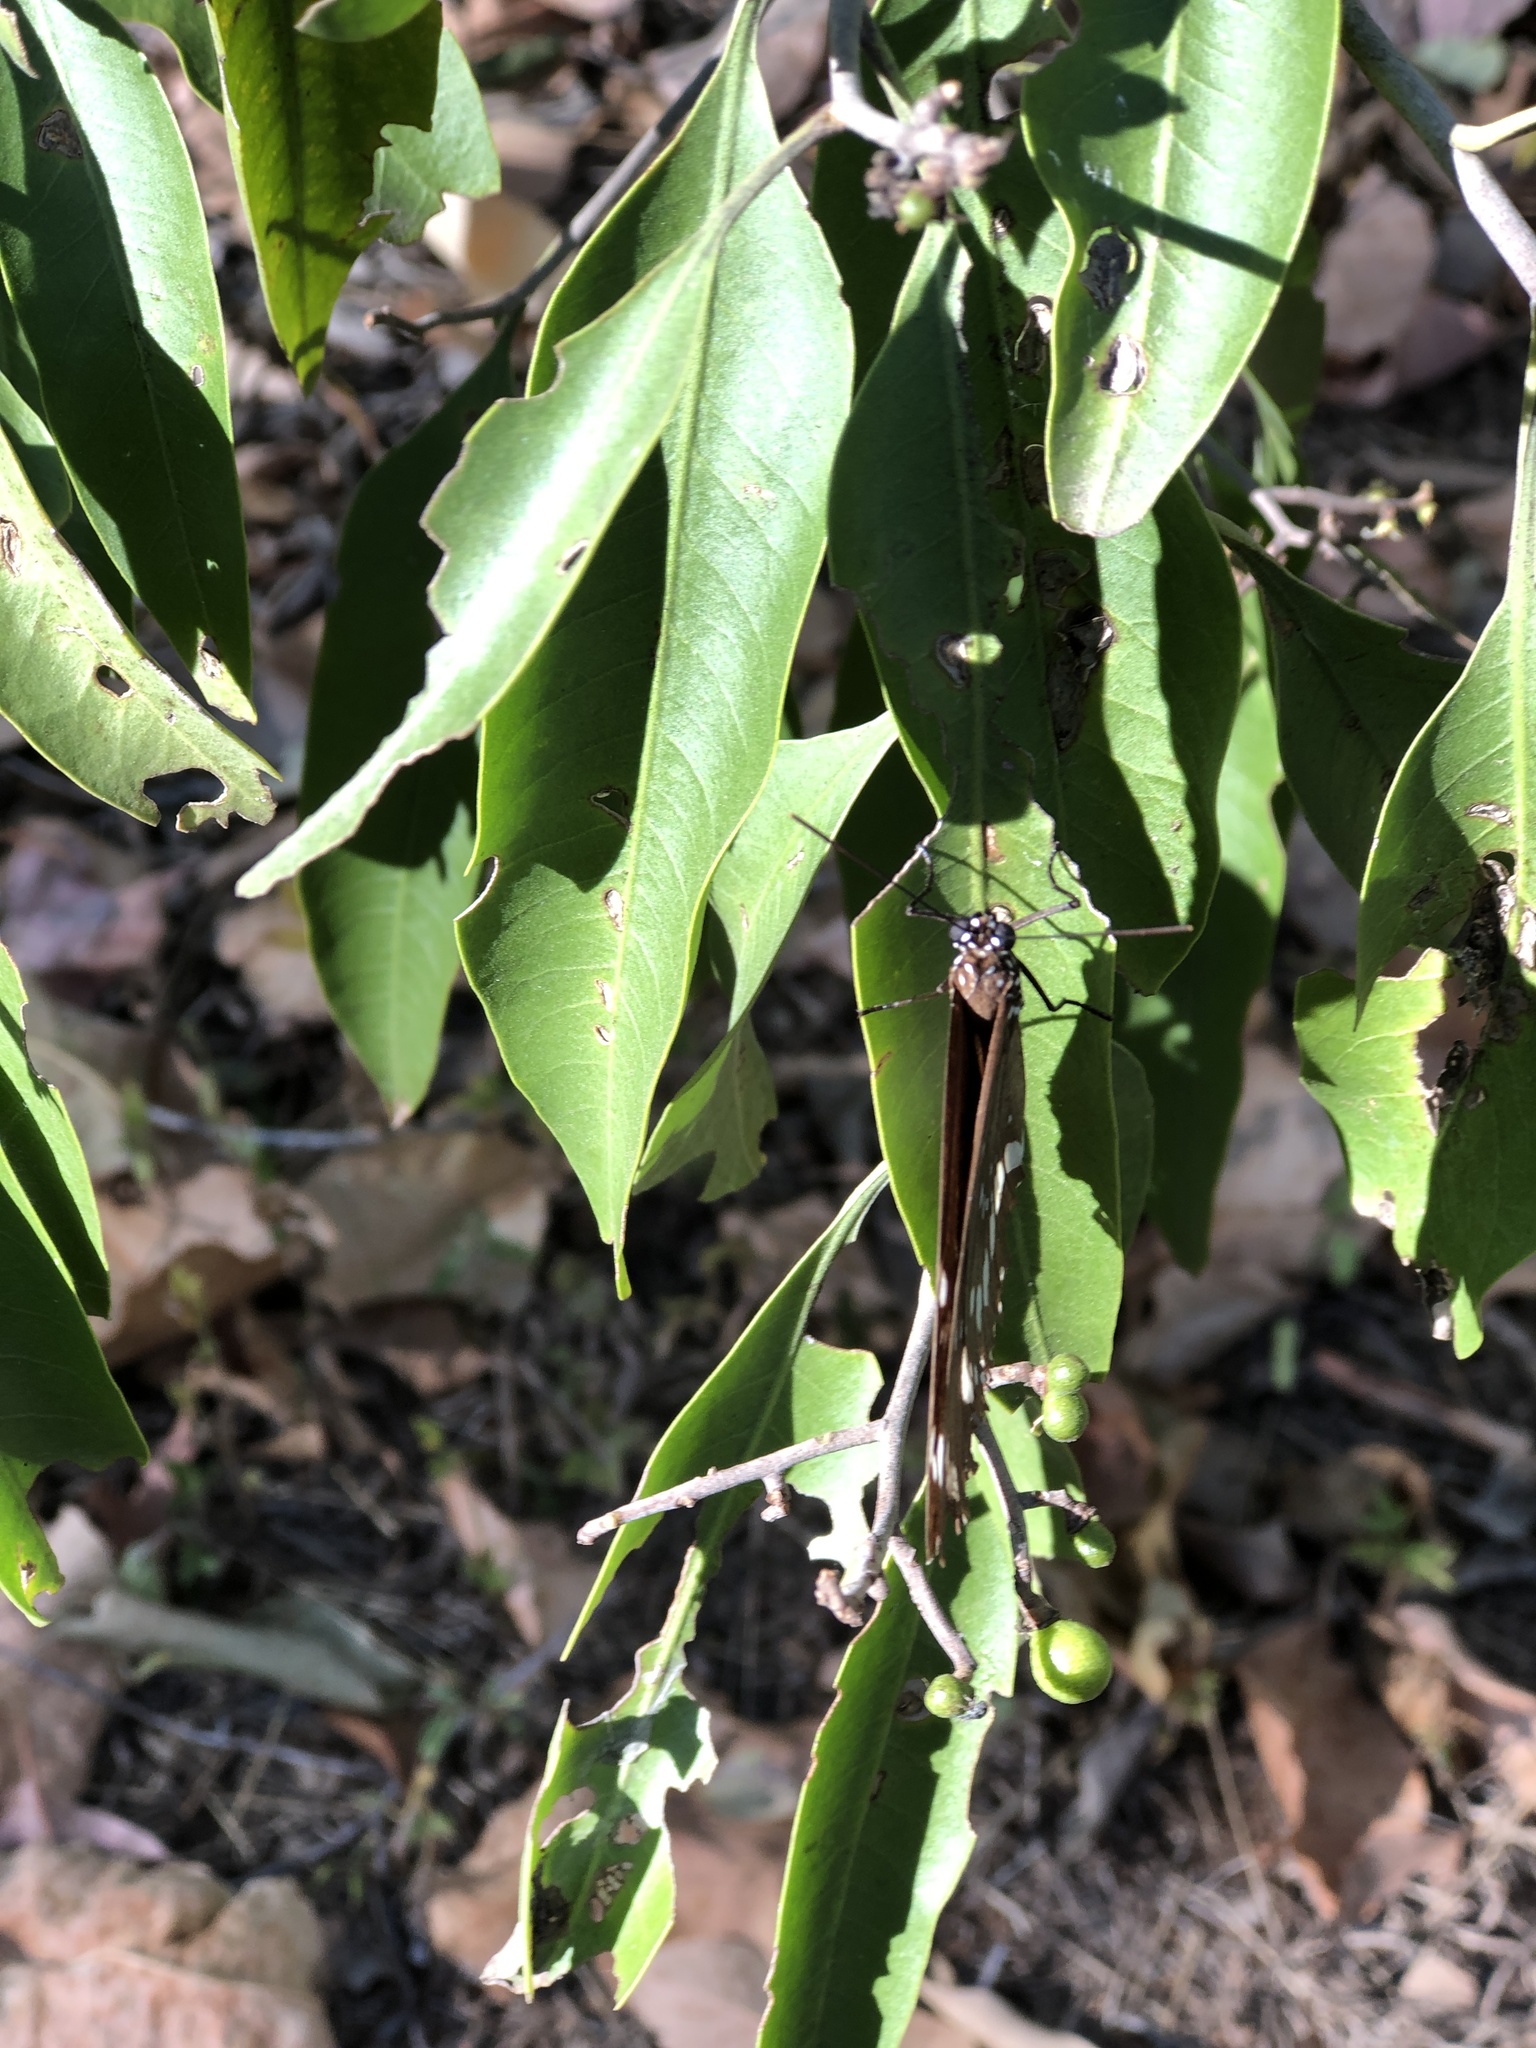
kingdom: Animalia
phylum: Arthropoda
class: Insecta
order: Lepidoptera
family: Nymphalidae
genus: Euploea
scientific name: Euploea core
